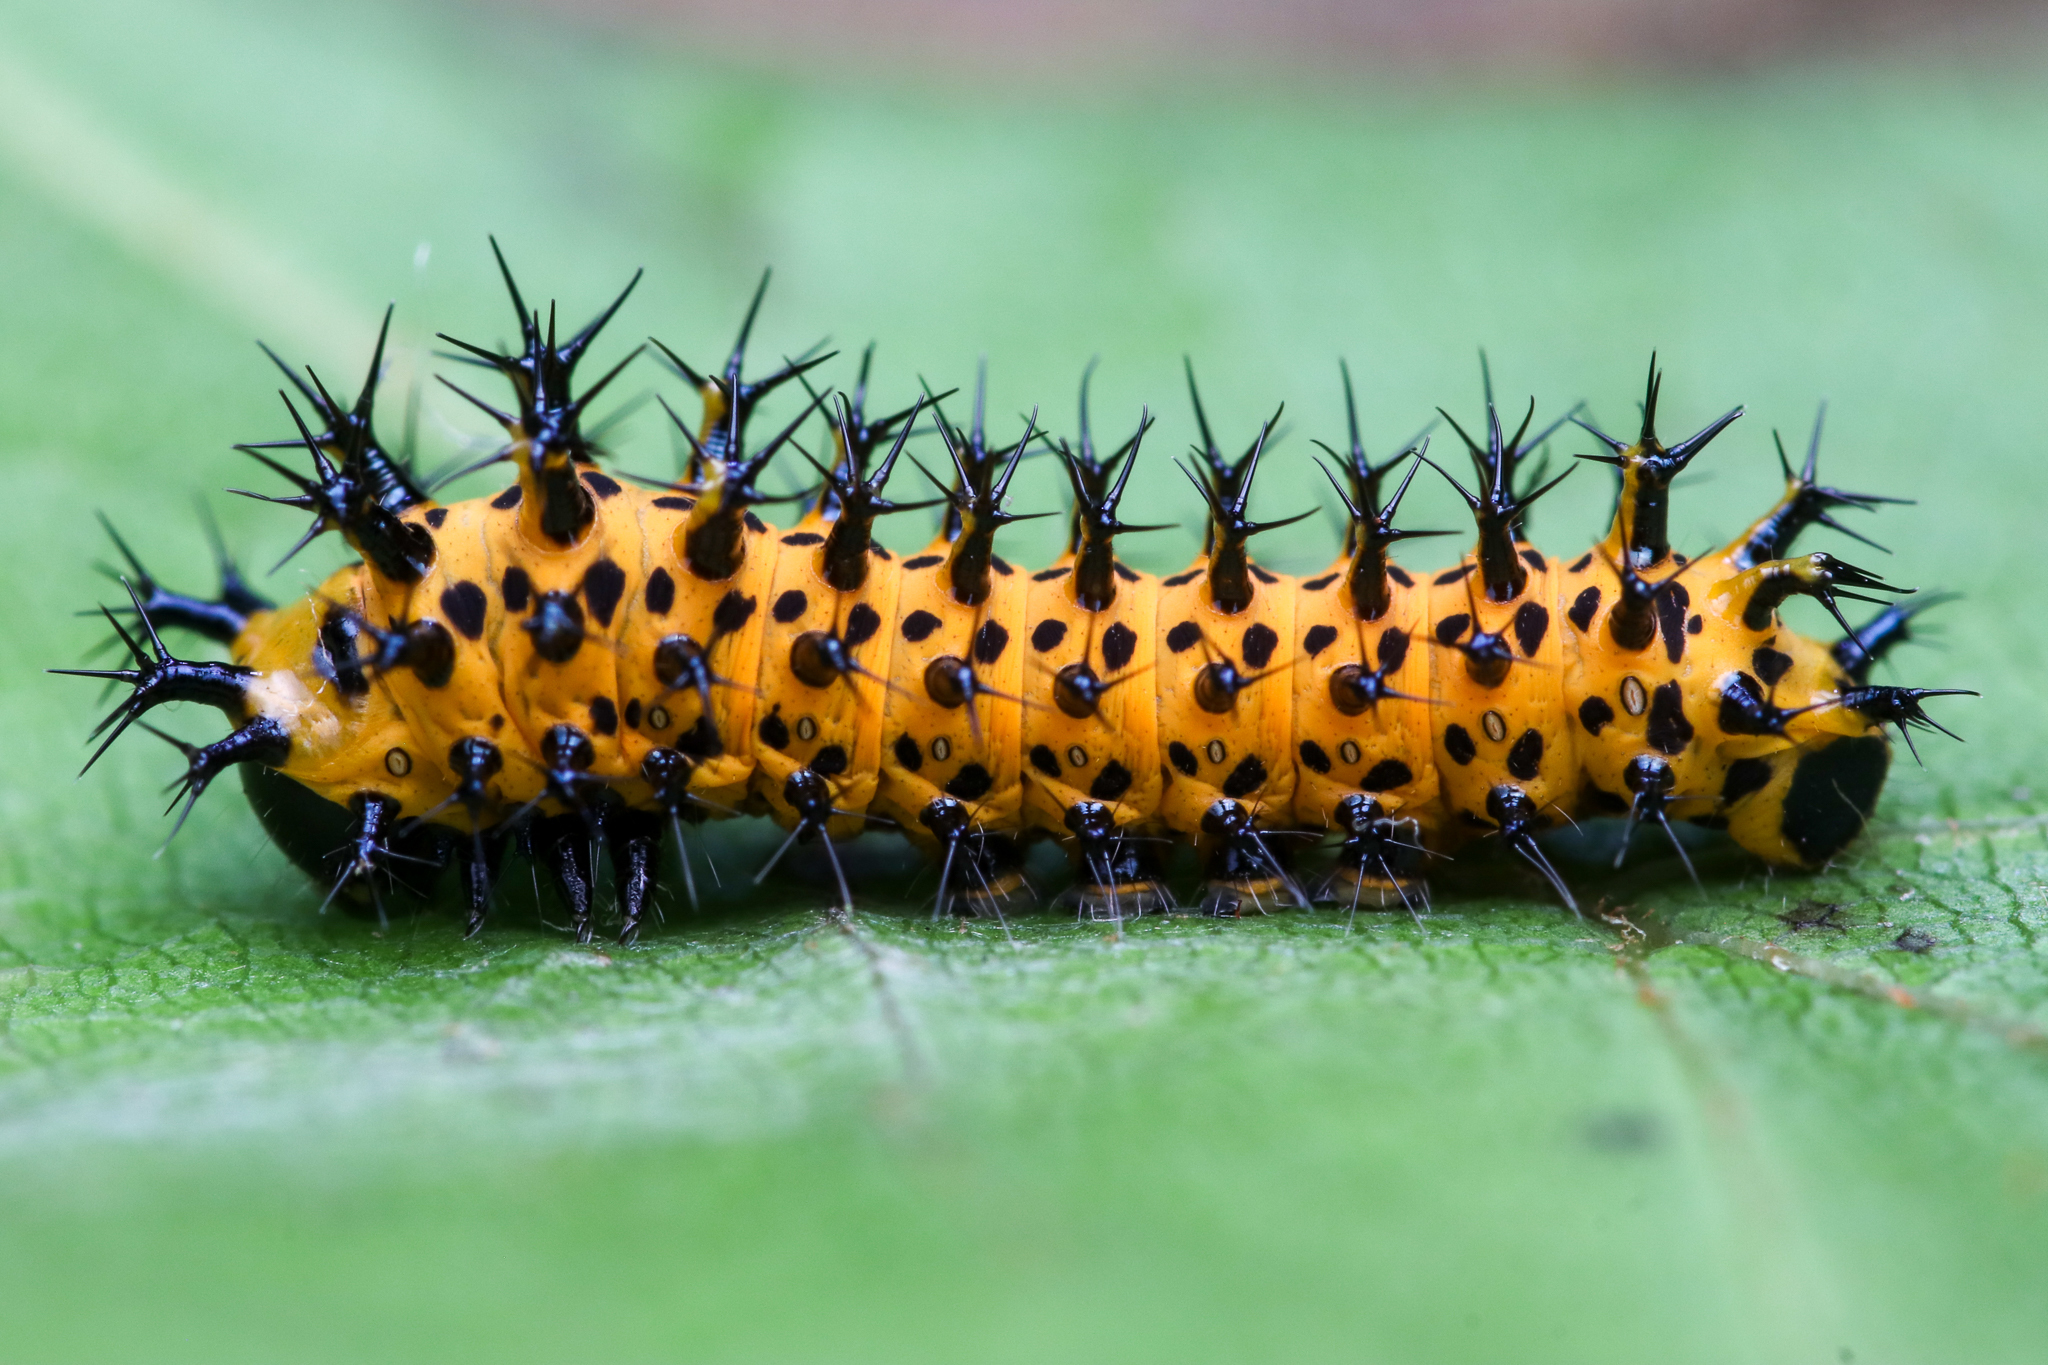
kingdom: Animalia
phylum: Arthropoda
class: Insecta
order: Lepidoptera
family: Saturniidae
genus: Hyalophora
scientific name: Hyalophora cecropia
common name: Cecropia silkmoth
